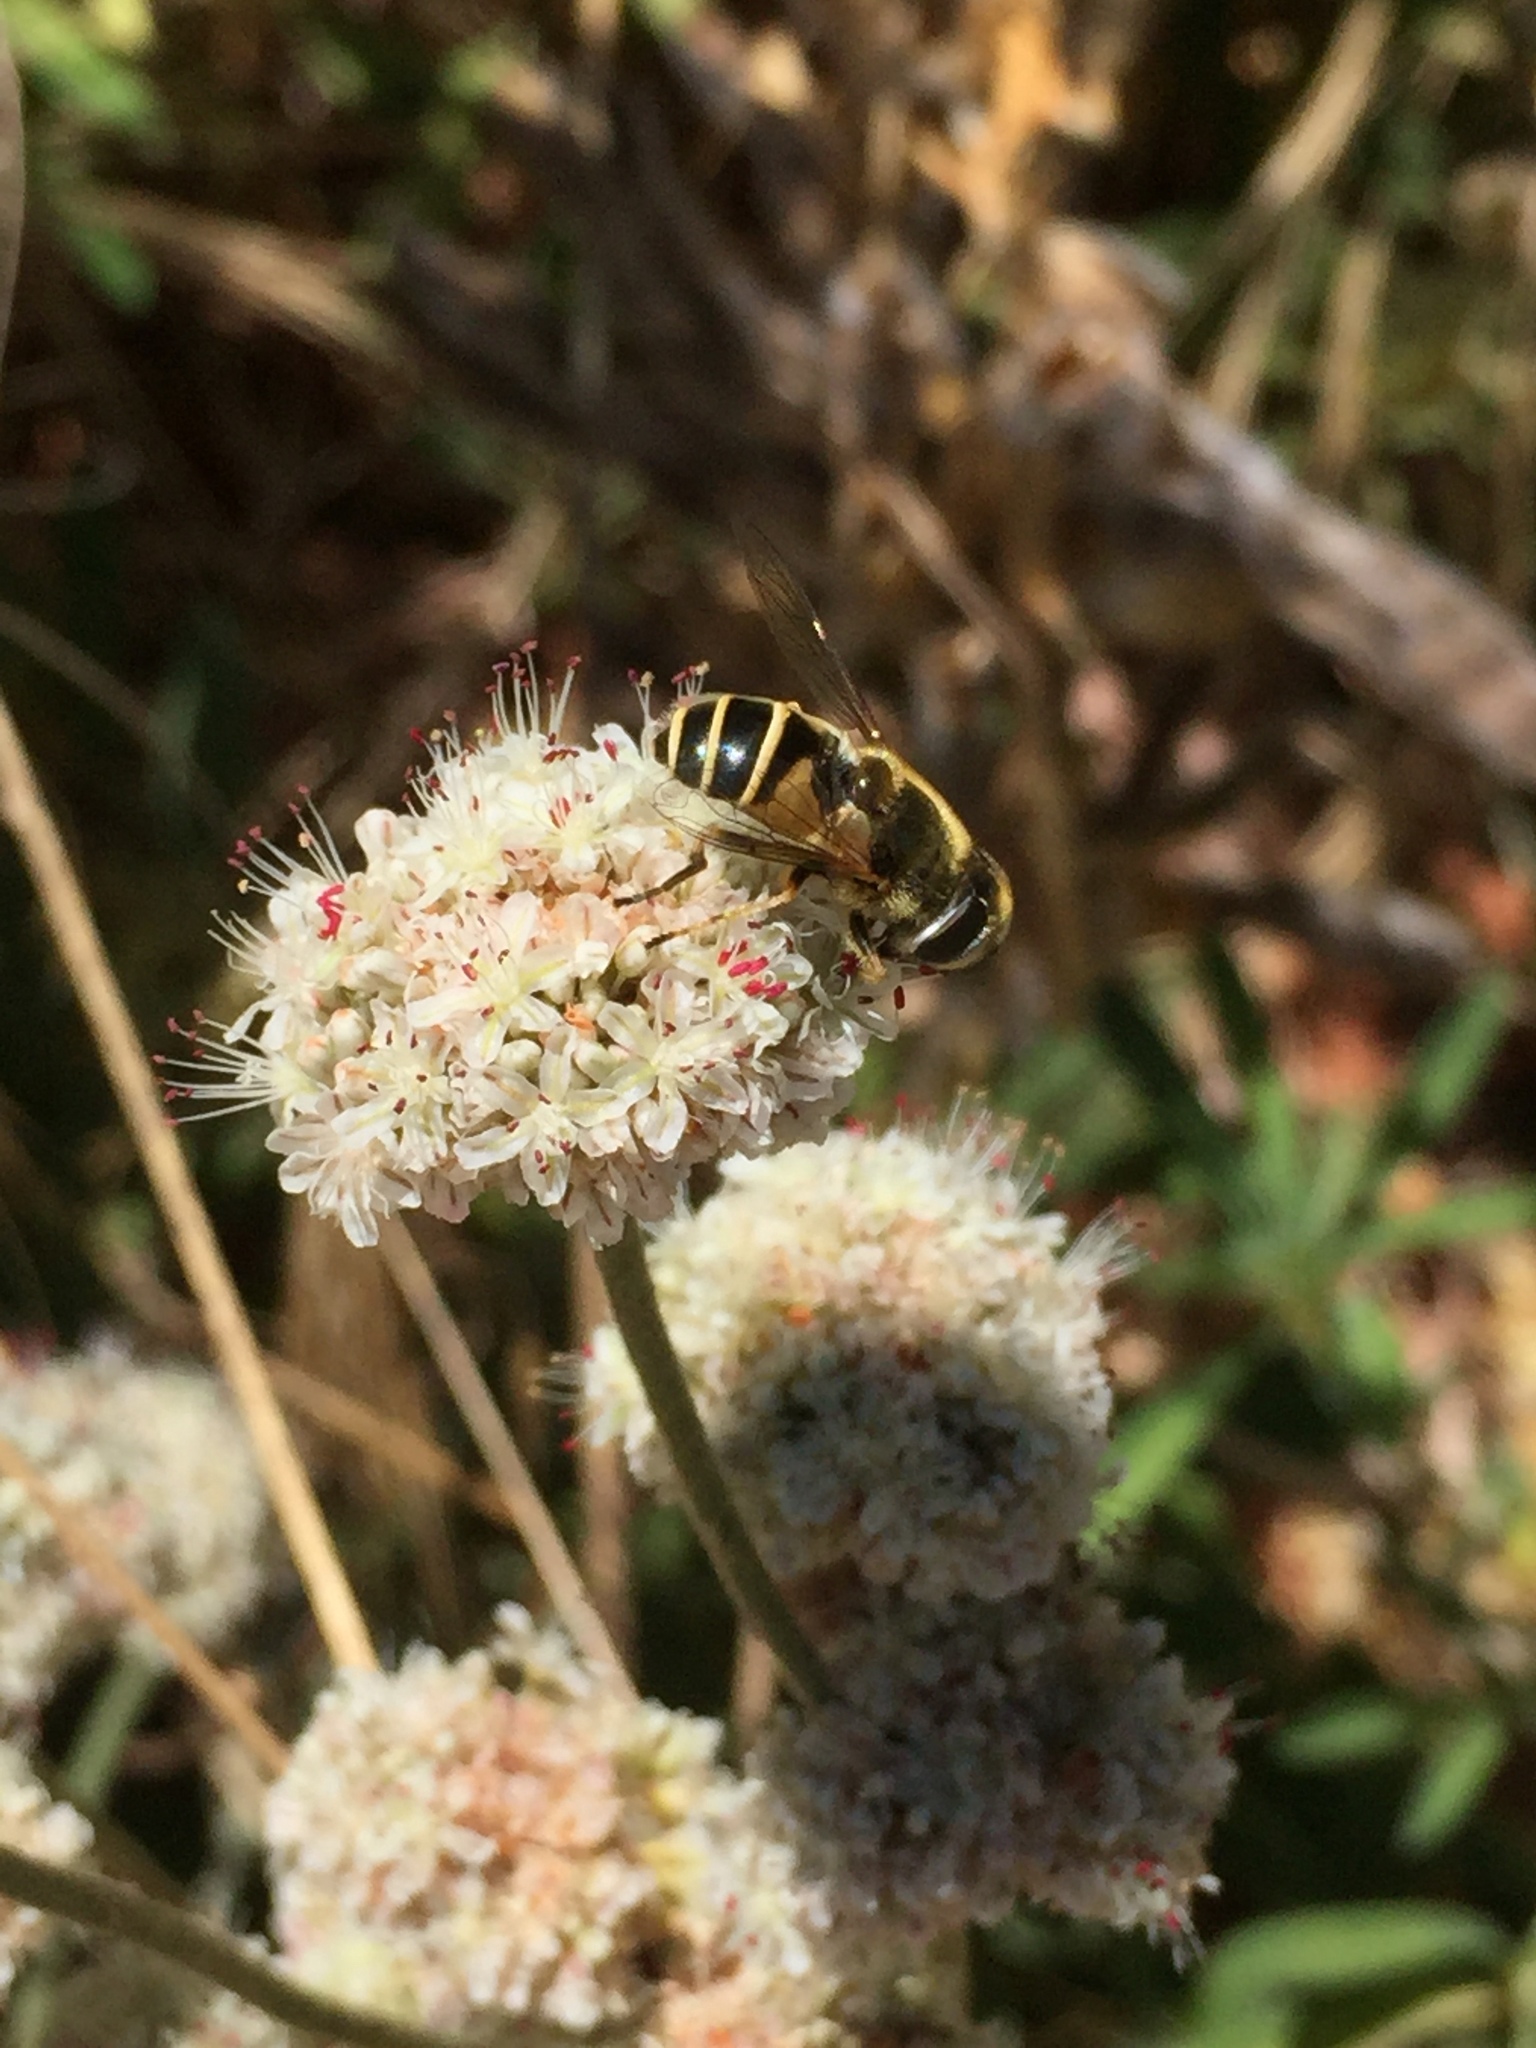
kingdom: Animalia
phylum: Arthropoda
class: Insecta
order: Diptera
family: Syrphidae
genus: Eristalis
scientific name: Eristalis hirta
